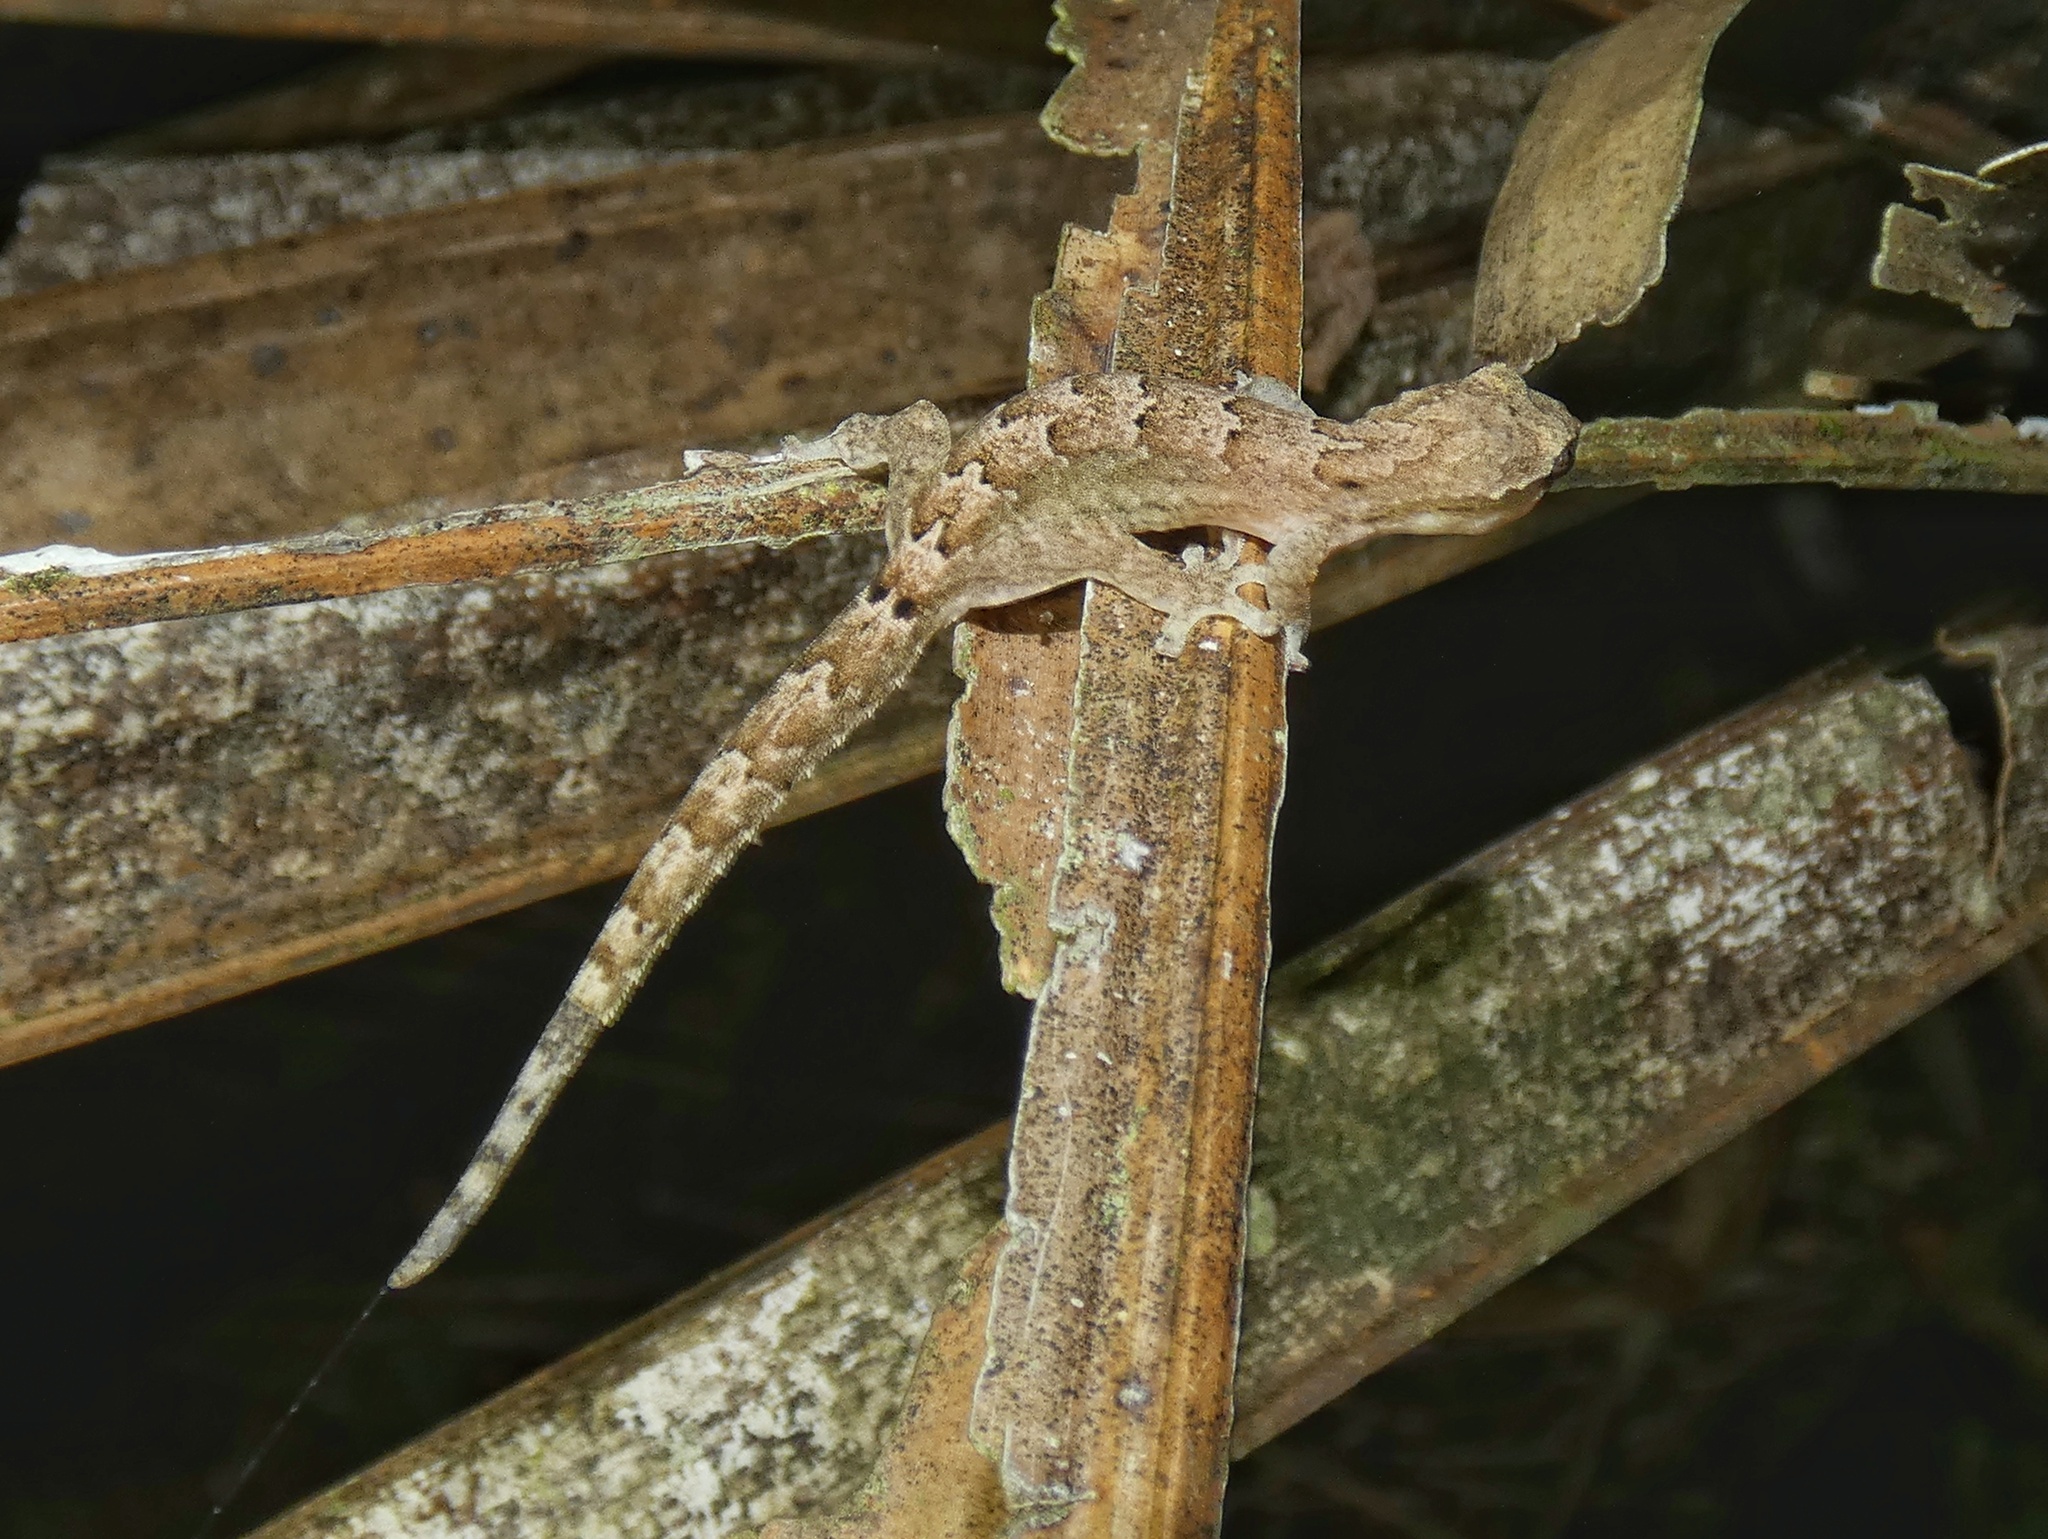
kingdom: Animalia
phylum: Chordata
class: Squamata
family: Gekkonidae
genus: Lepidodactylus
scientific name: Lepidodactylus lugubris
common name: Mourning gecko
